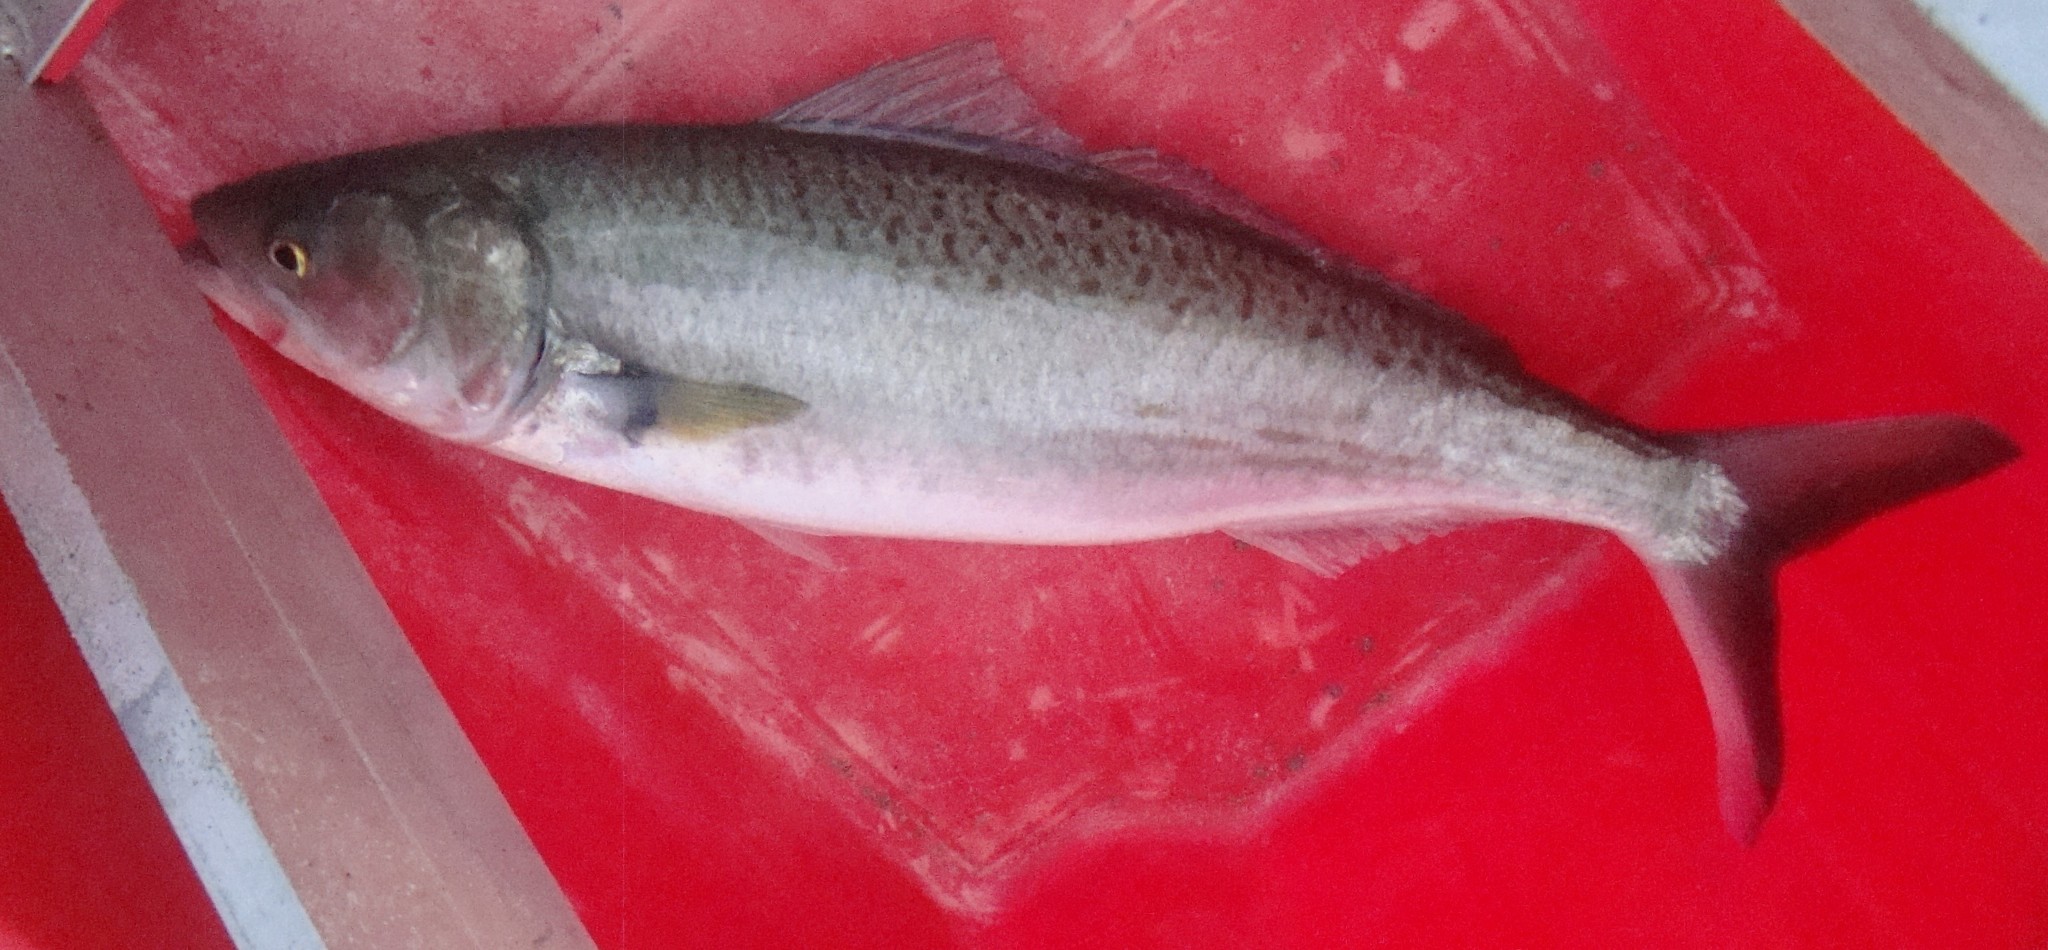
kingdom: Animalia
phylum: Chordata
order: Perciformes
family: Arripidae
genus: Arripis
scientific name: Arripis trutta
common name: Kahawai
